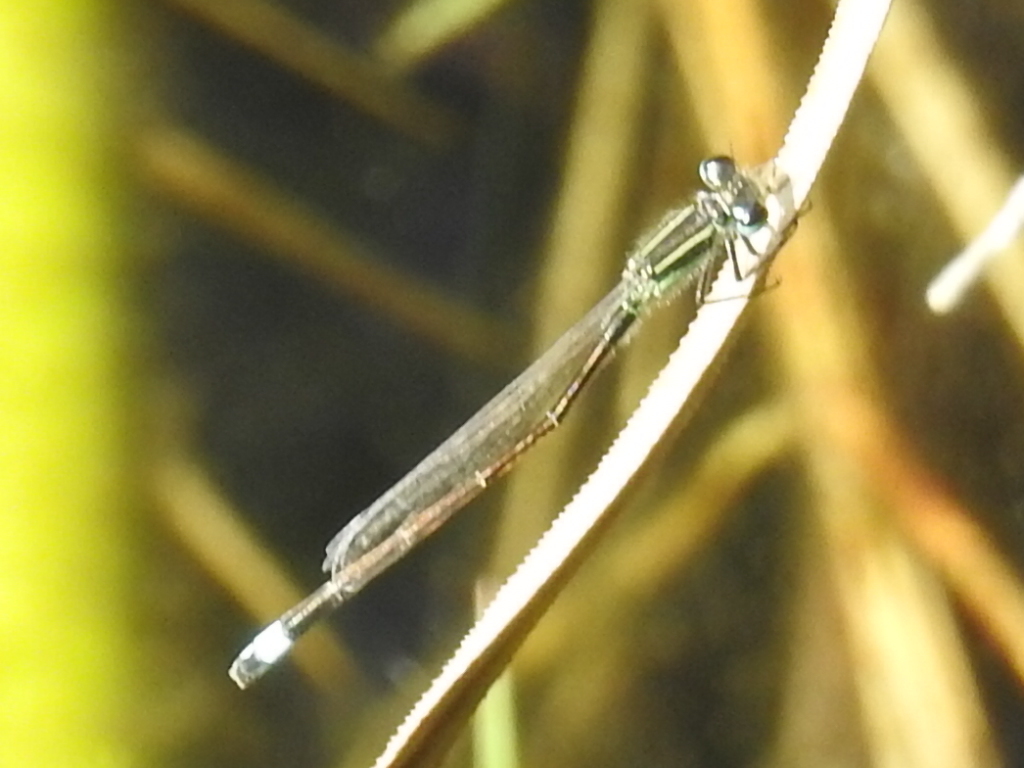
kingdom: Animalia
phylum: Arthropoda
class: Insecta
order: Odonata
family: Coenagrionidae
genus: Ischnura
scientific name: Ischnura ramburii
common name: Rambur's forktail
